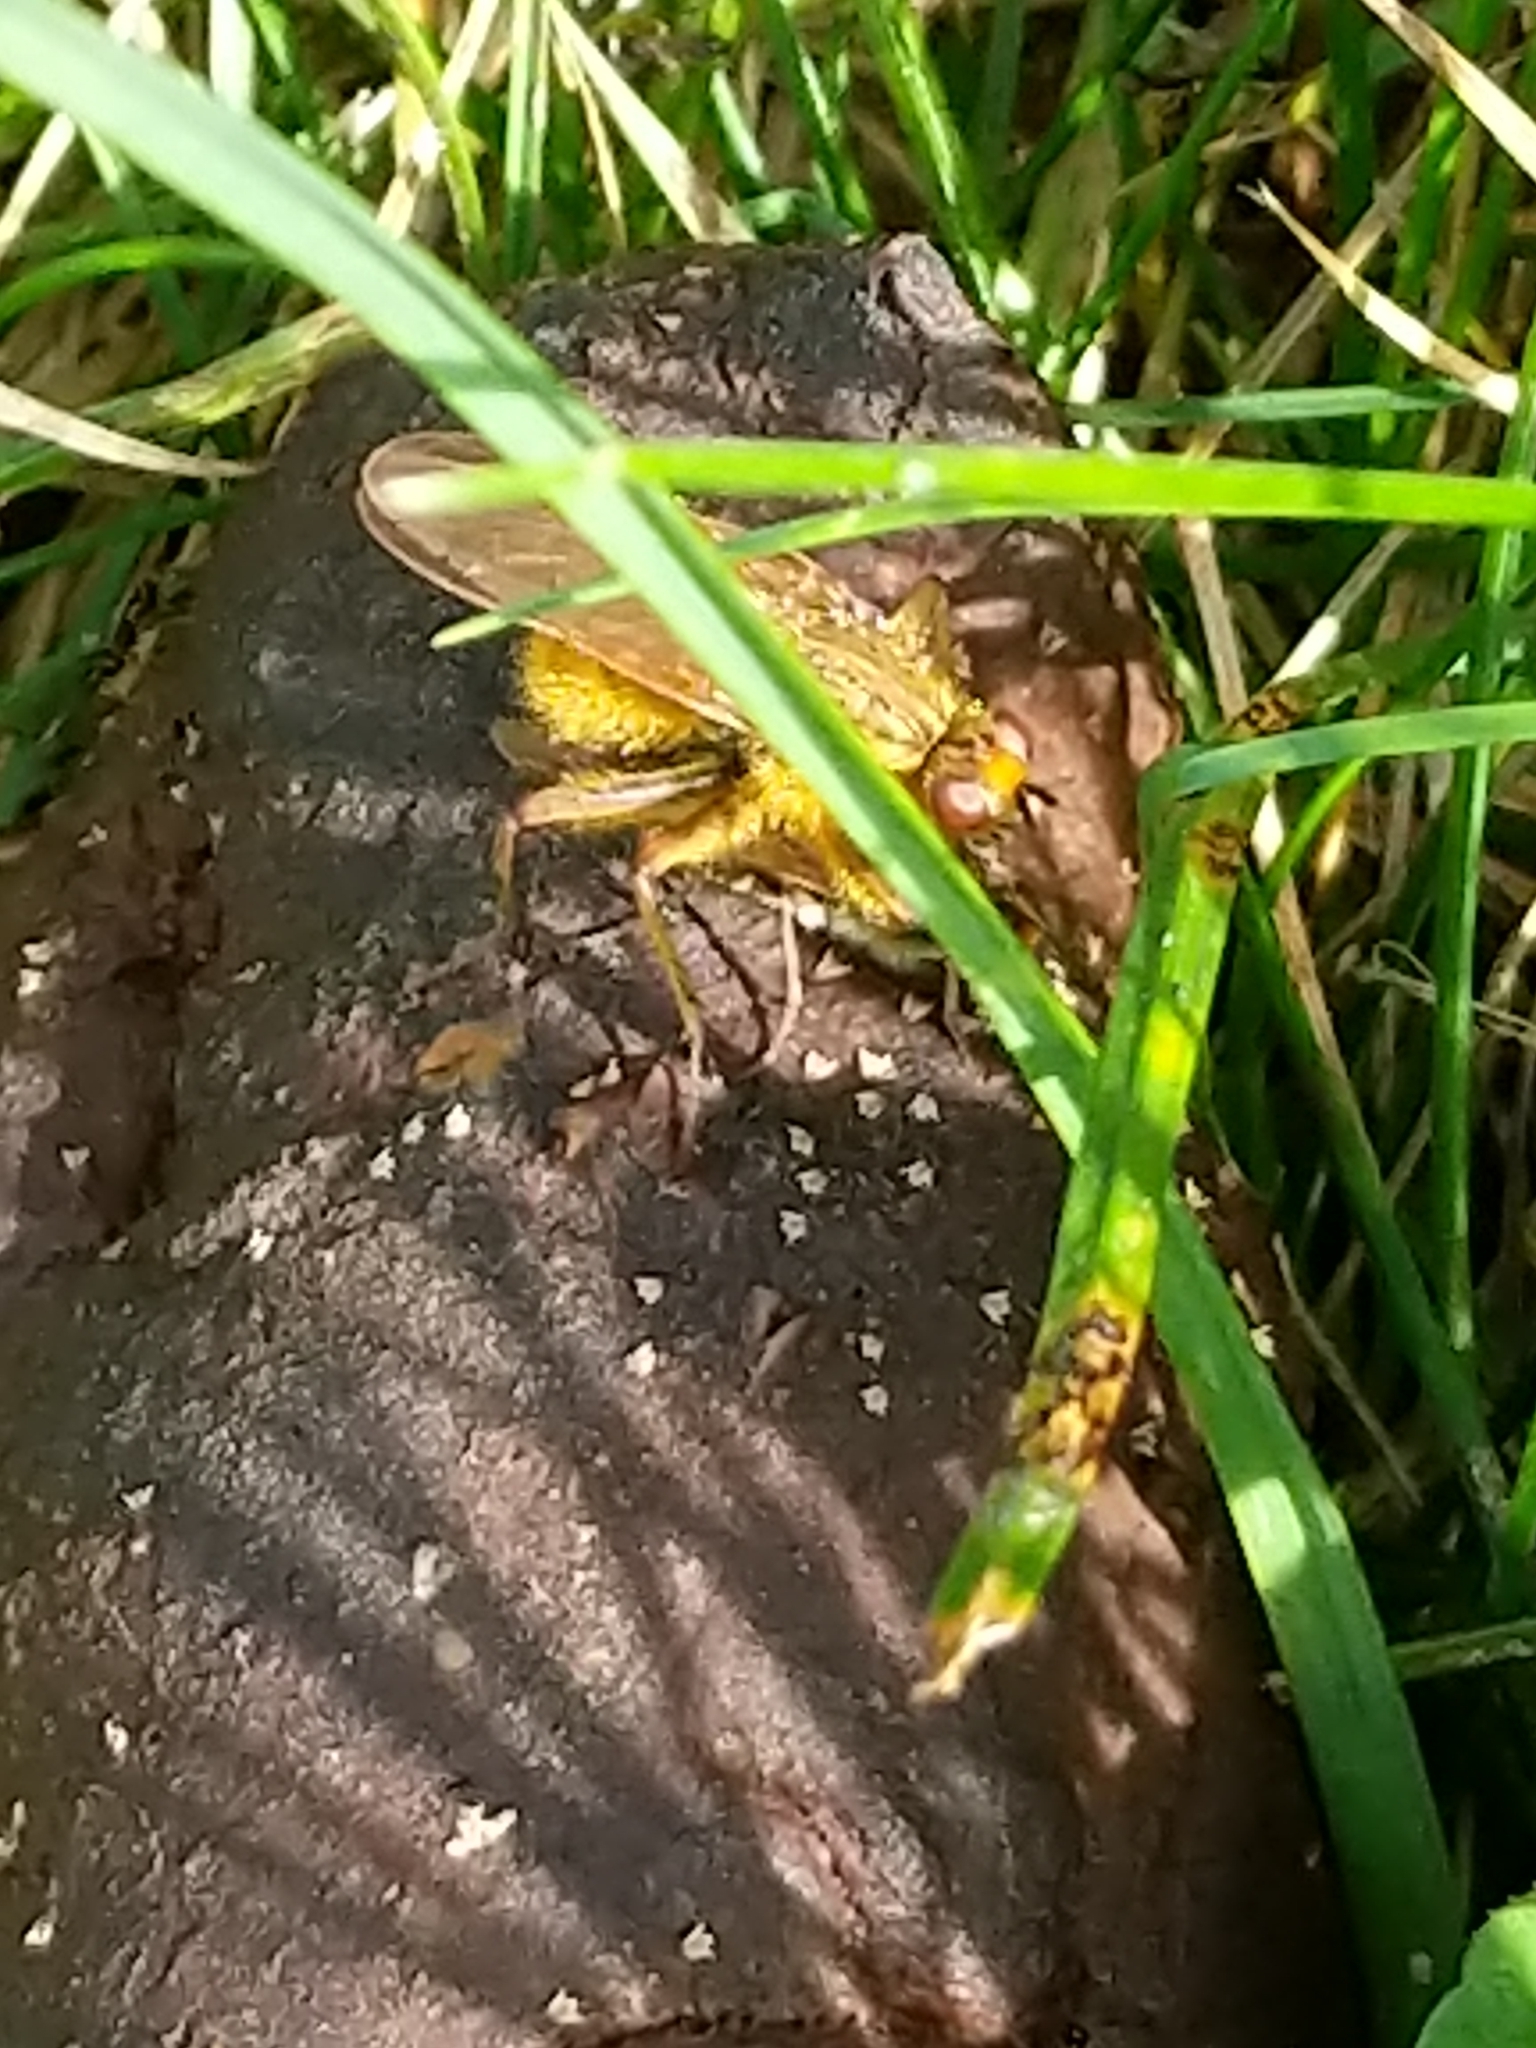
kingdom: Animalia
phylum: Arthropoda
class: Insecta
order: Diptera
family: Scathophagidae
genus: Scathophaga
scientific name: Scathophaga stercoraria
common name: Yellow dung fly
